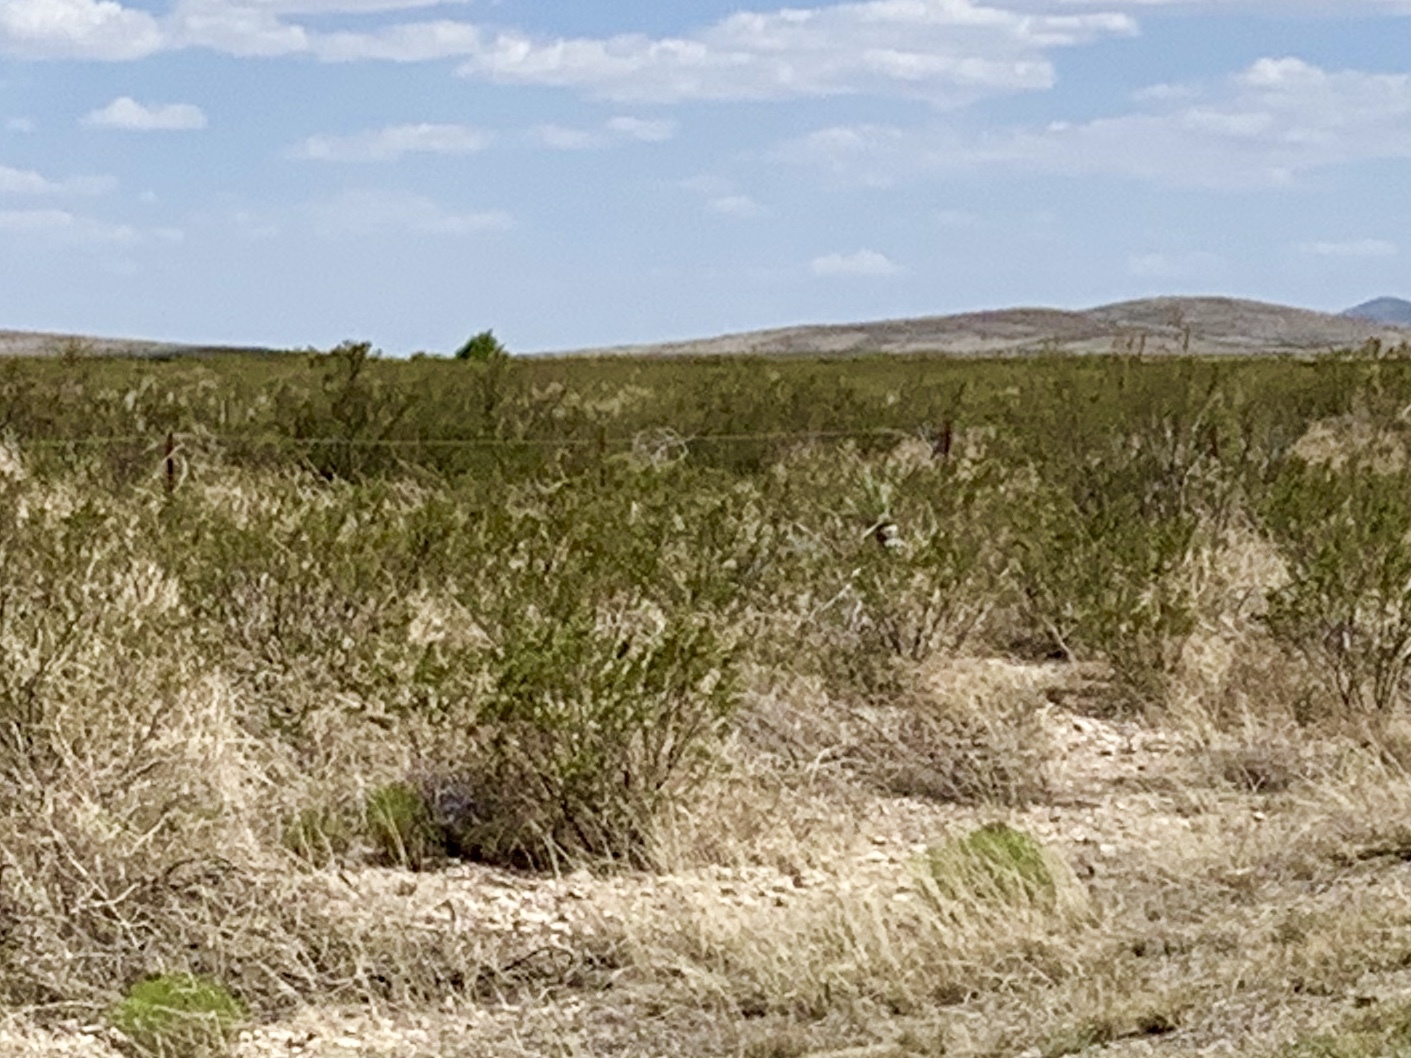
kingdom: Plantae
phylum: Tracheophyta
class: Magnoliopsida
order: Zygophyllales
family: Zygophyllaceae
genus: Larrea
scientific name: Larrea tridentata
